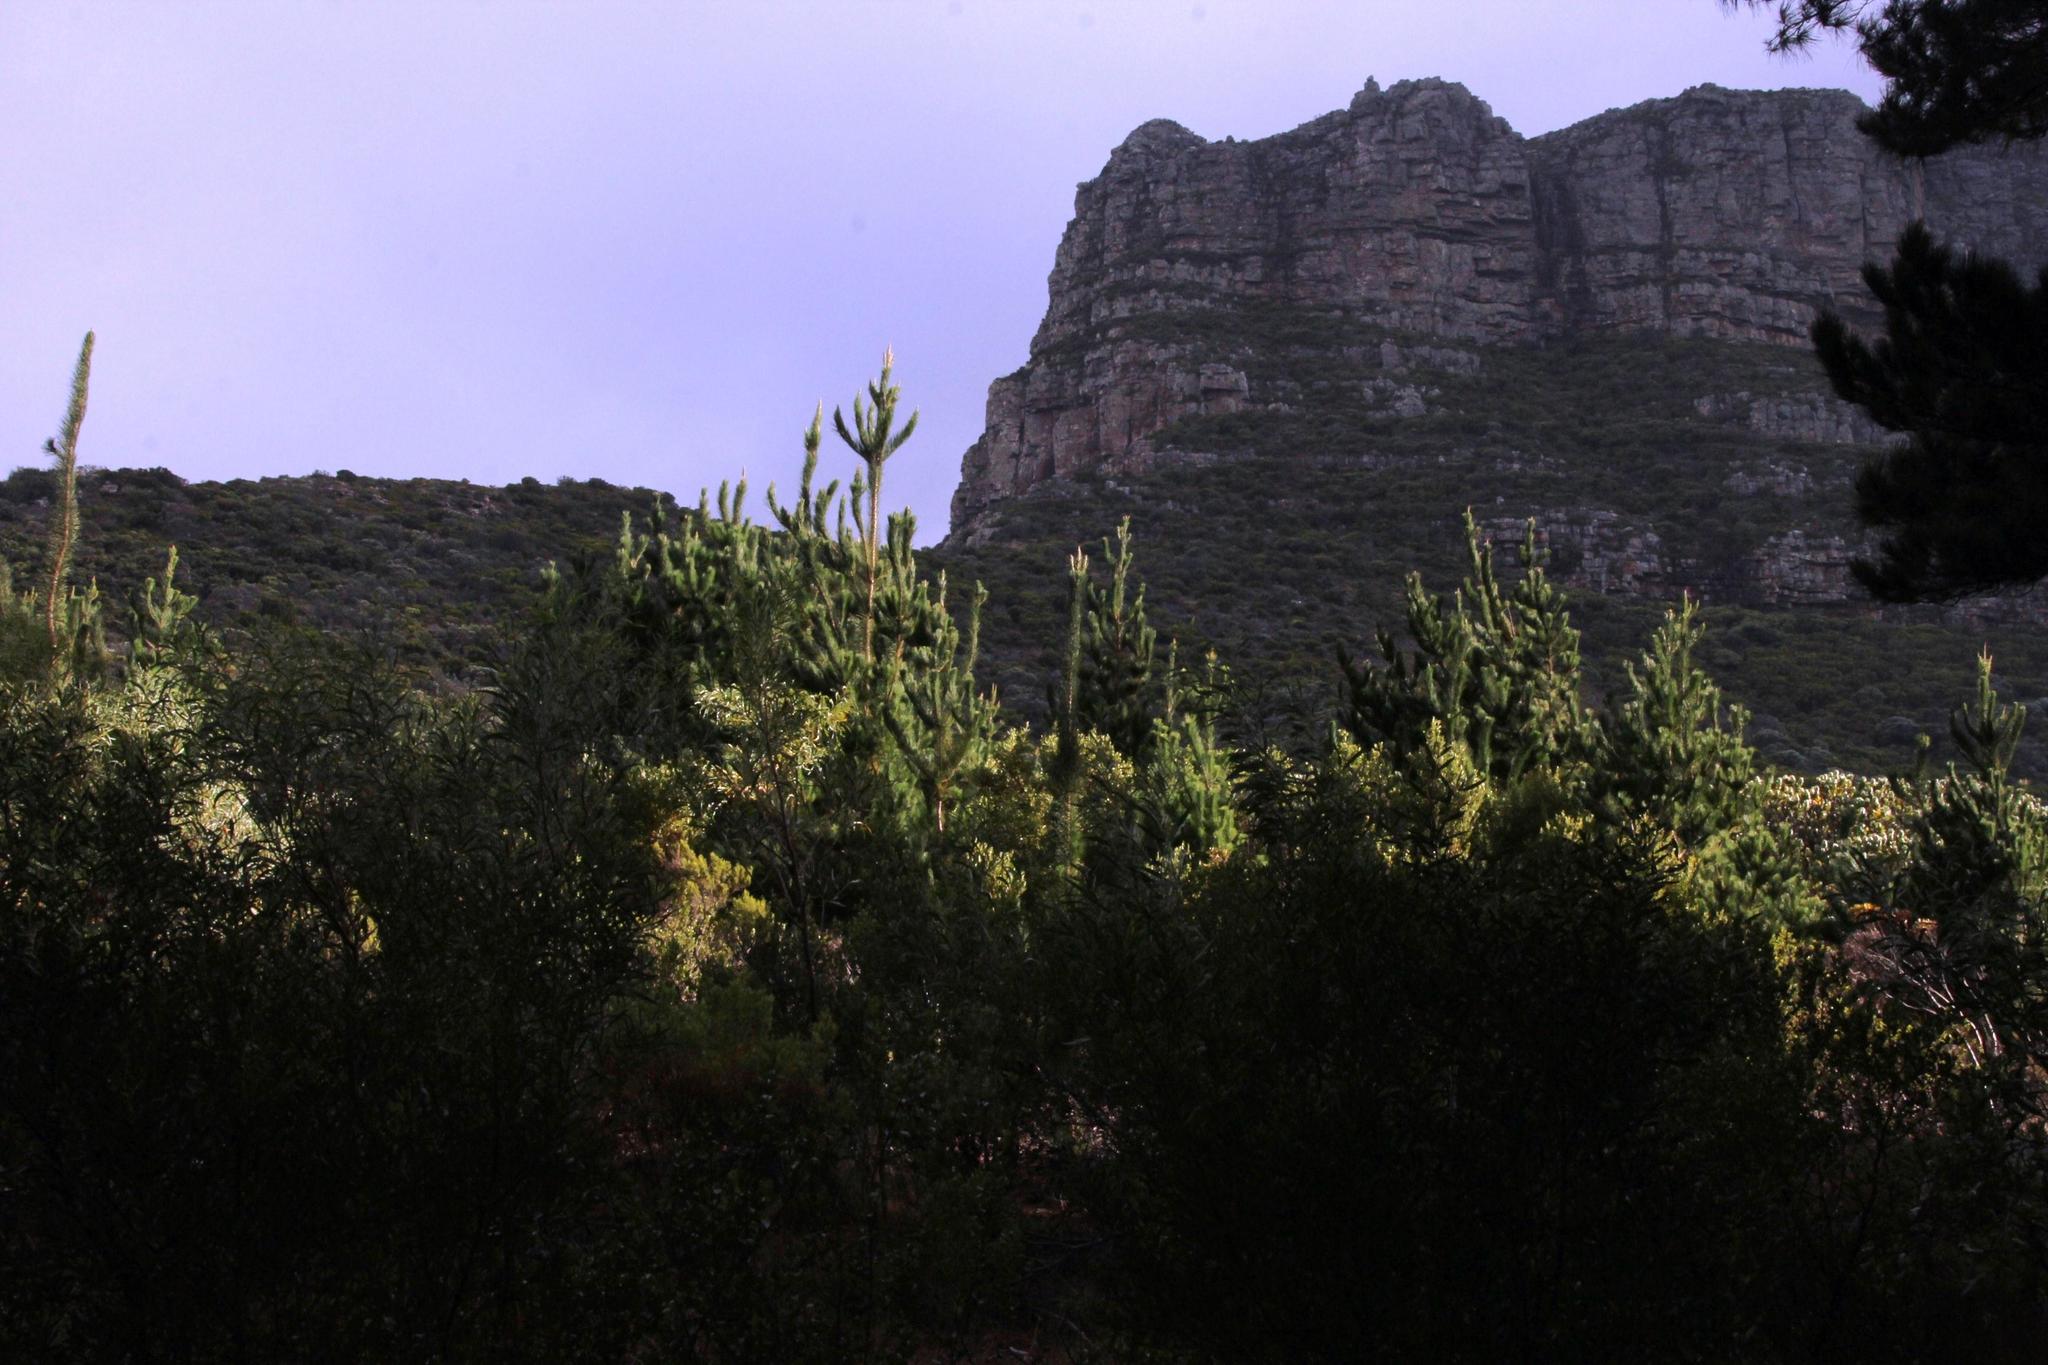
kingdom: Plantae
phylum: Tracheophyta
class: Pinopsida
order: Pinales
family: Pinaceae
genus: Pinus
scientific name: Pinus radiata
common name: Monterey pine
